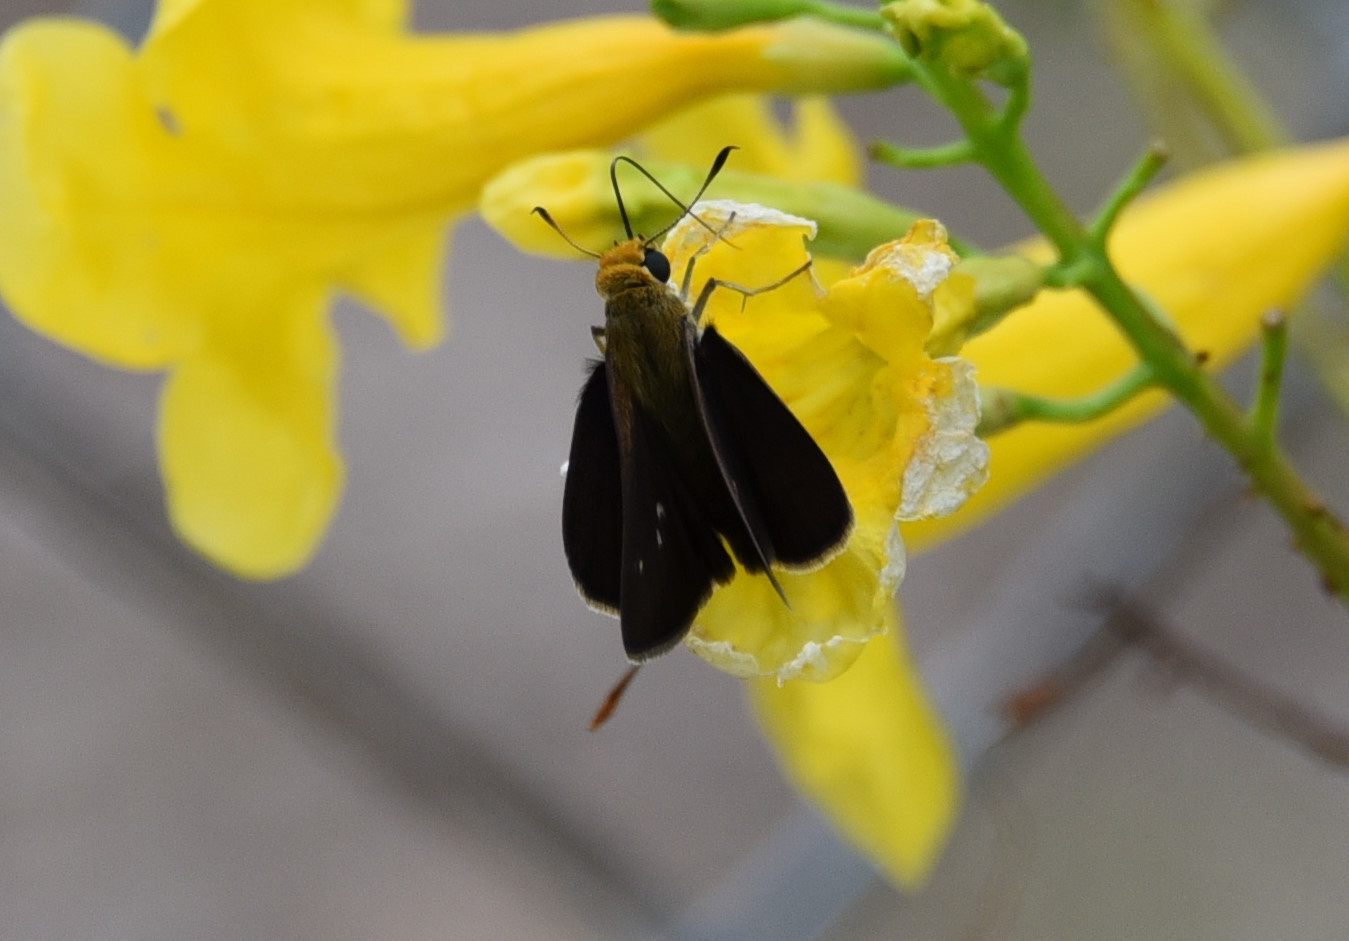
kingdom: Animalia
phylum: Arthropoda
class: Insecta
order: Lepidoptera
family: Hesperiidae
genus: Euphyes
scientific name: Euphyes vestris
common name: Dun skipper
